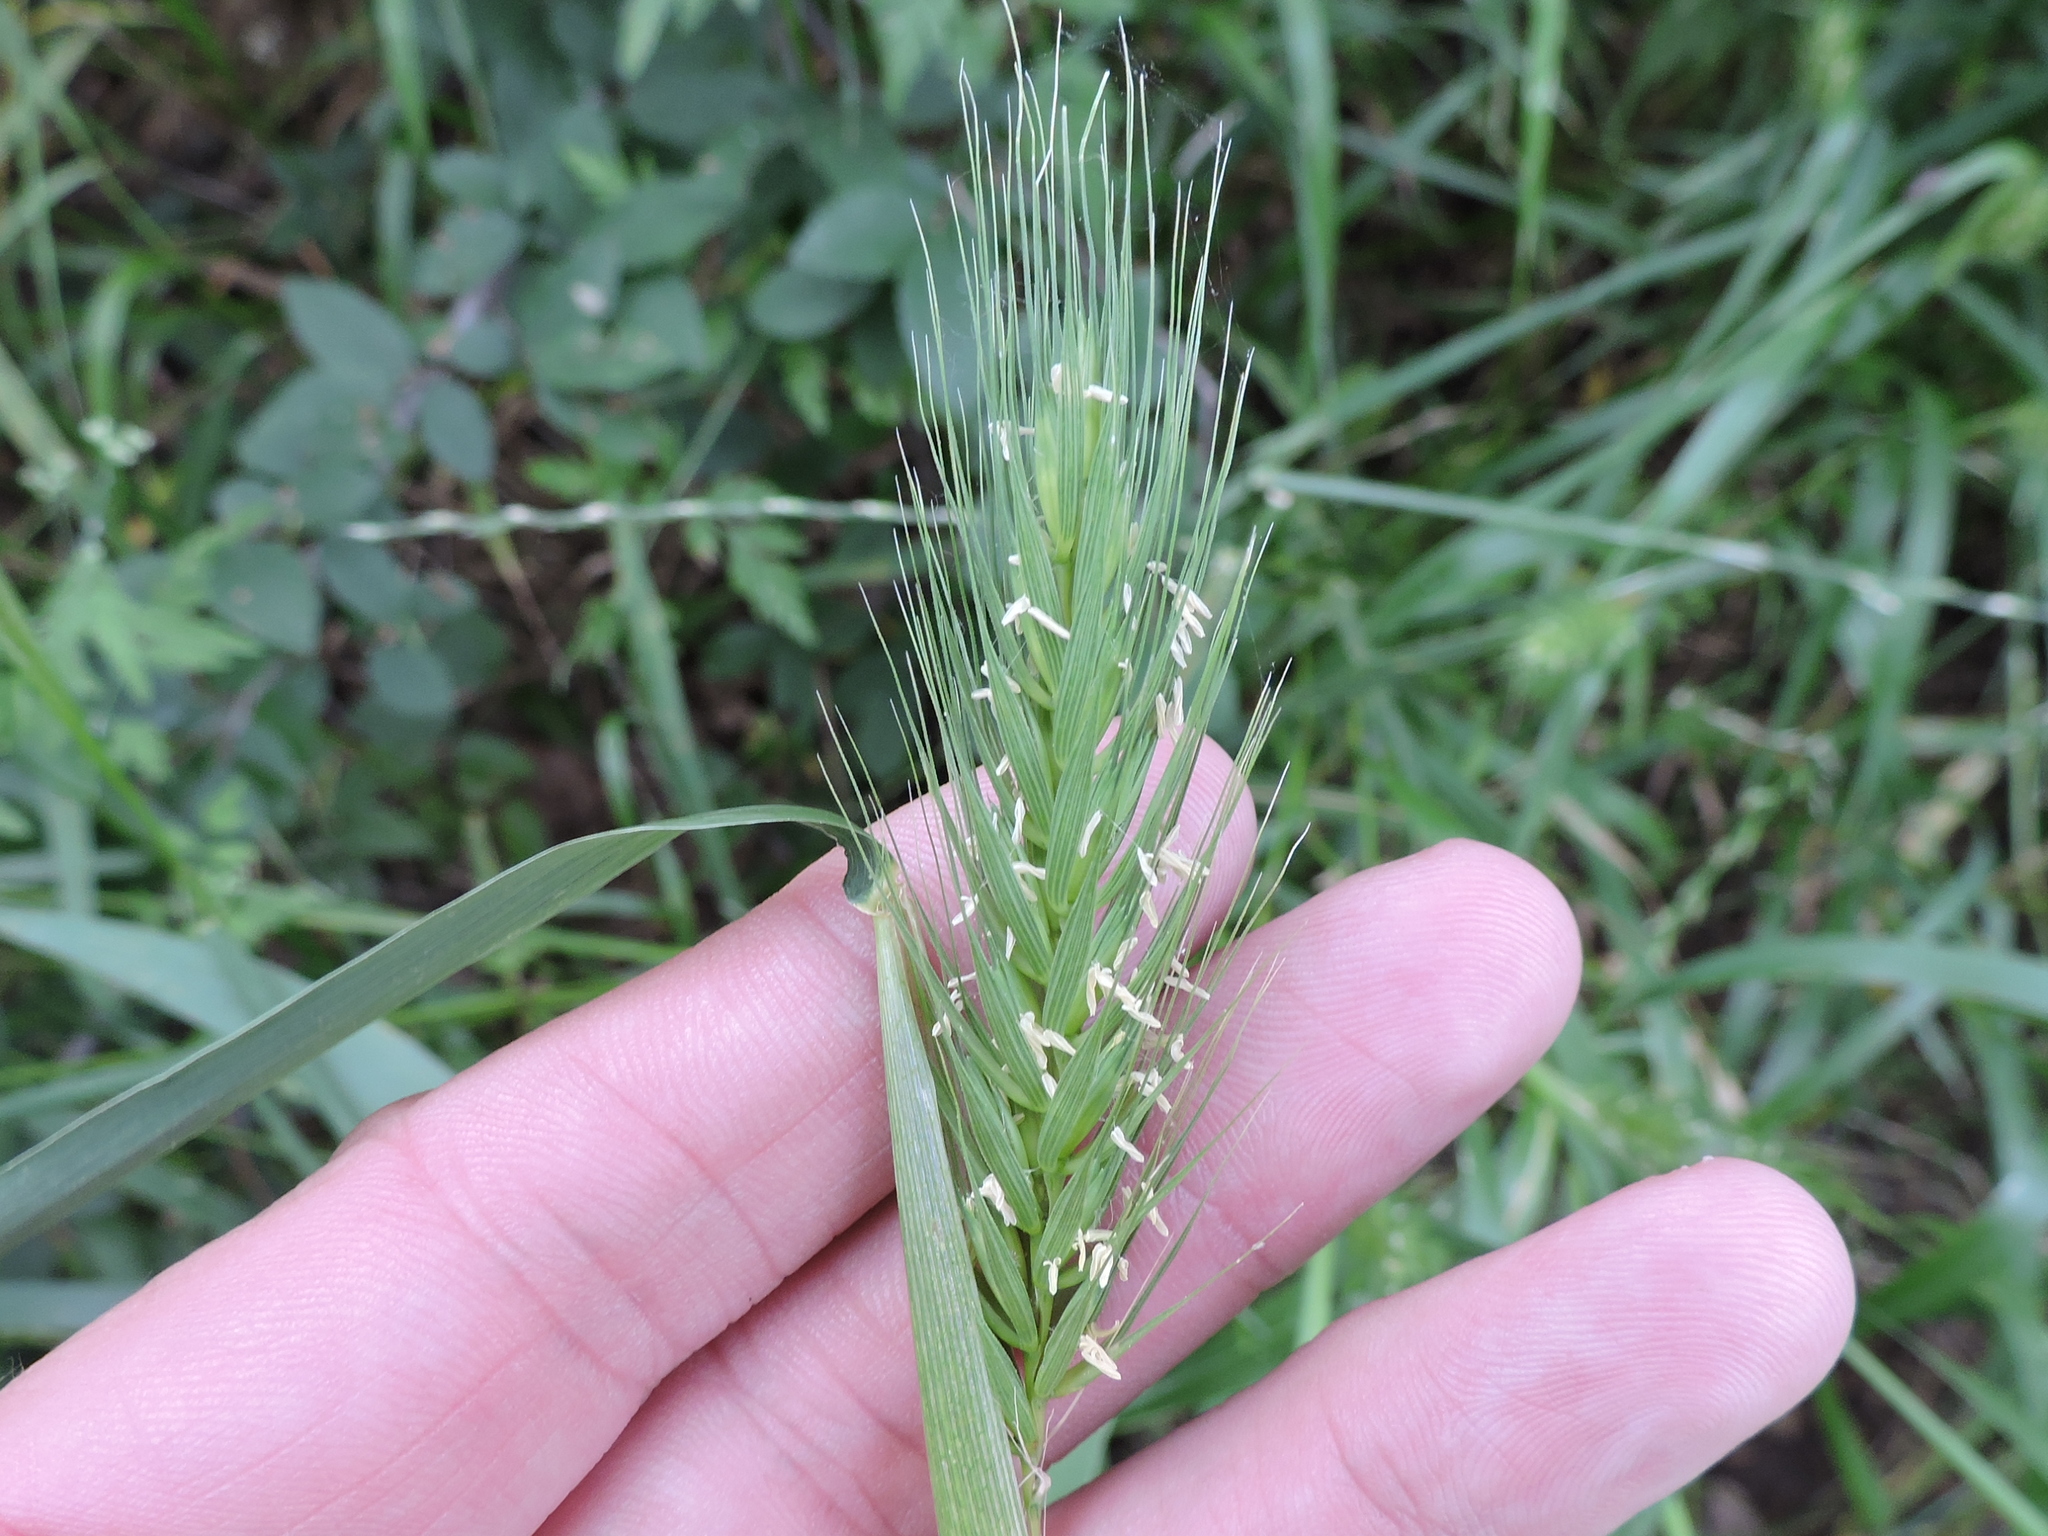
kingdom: Plantae
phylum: Tracheophyta
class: Liliopsida
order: Poales
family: Poaceae
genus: Elymus
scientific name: Elymus virginicus
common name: Common eastern wildrye
